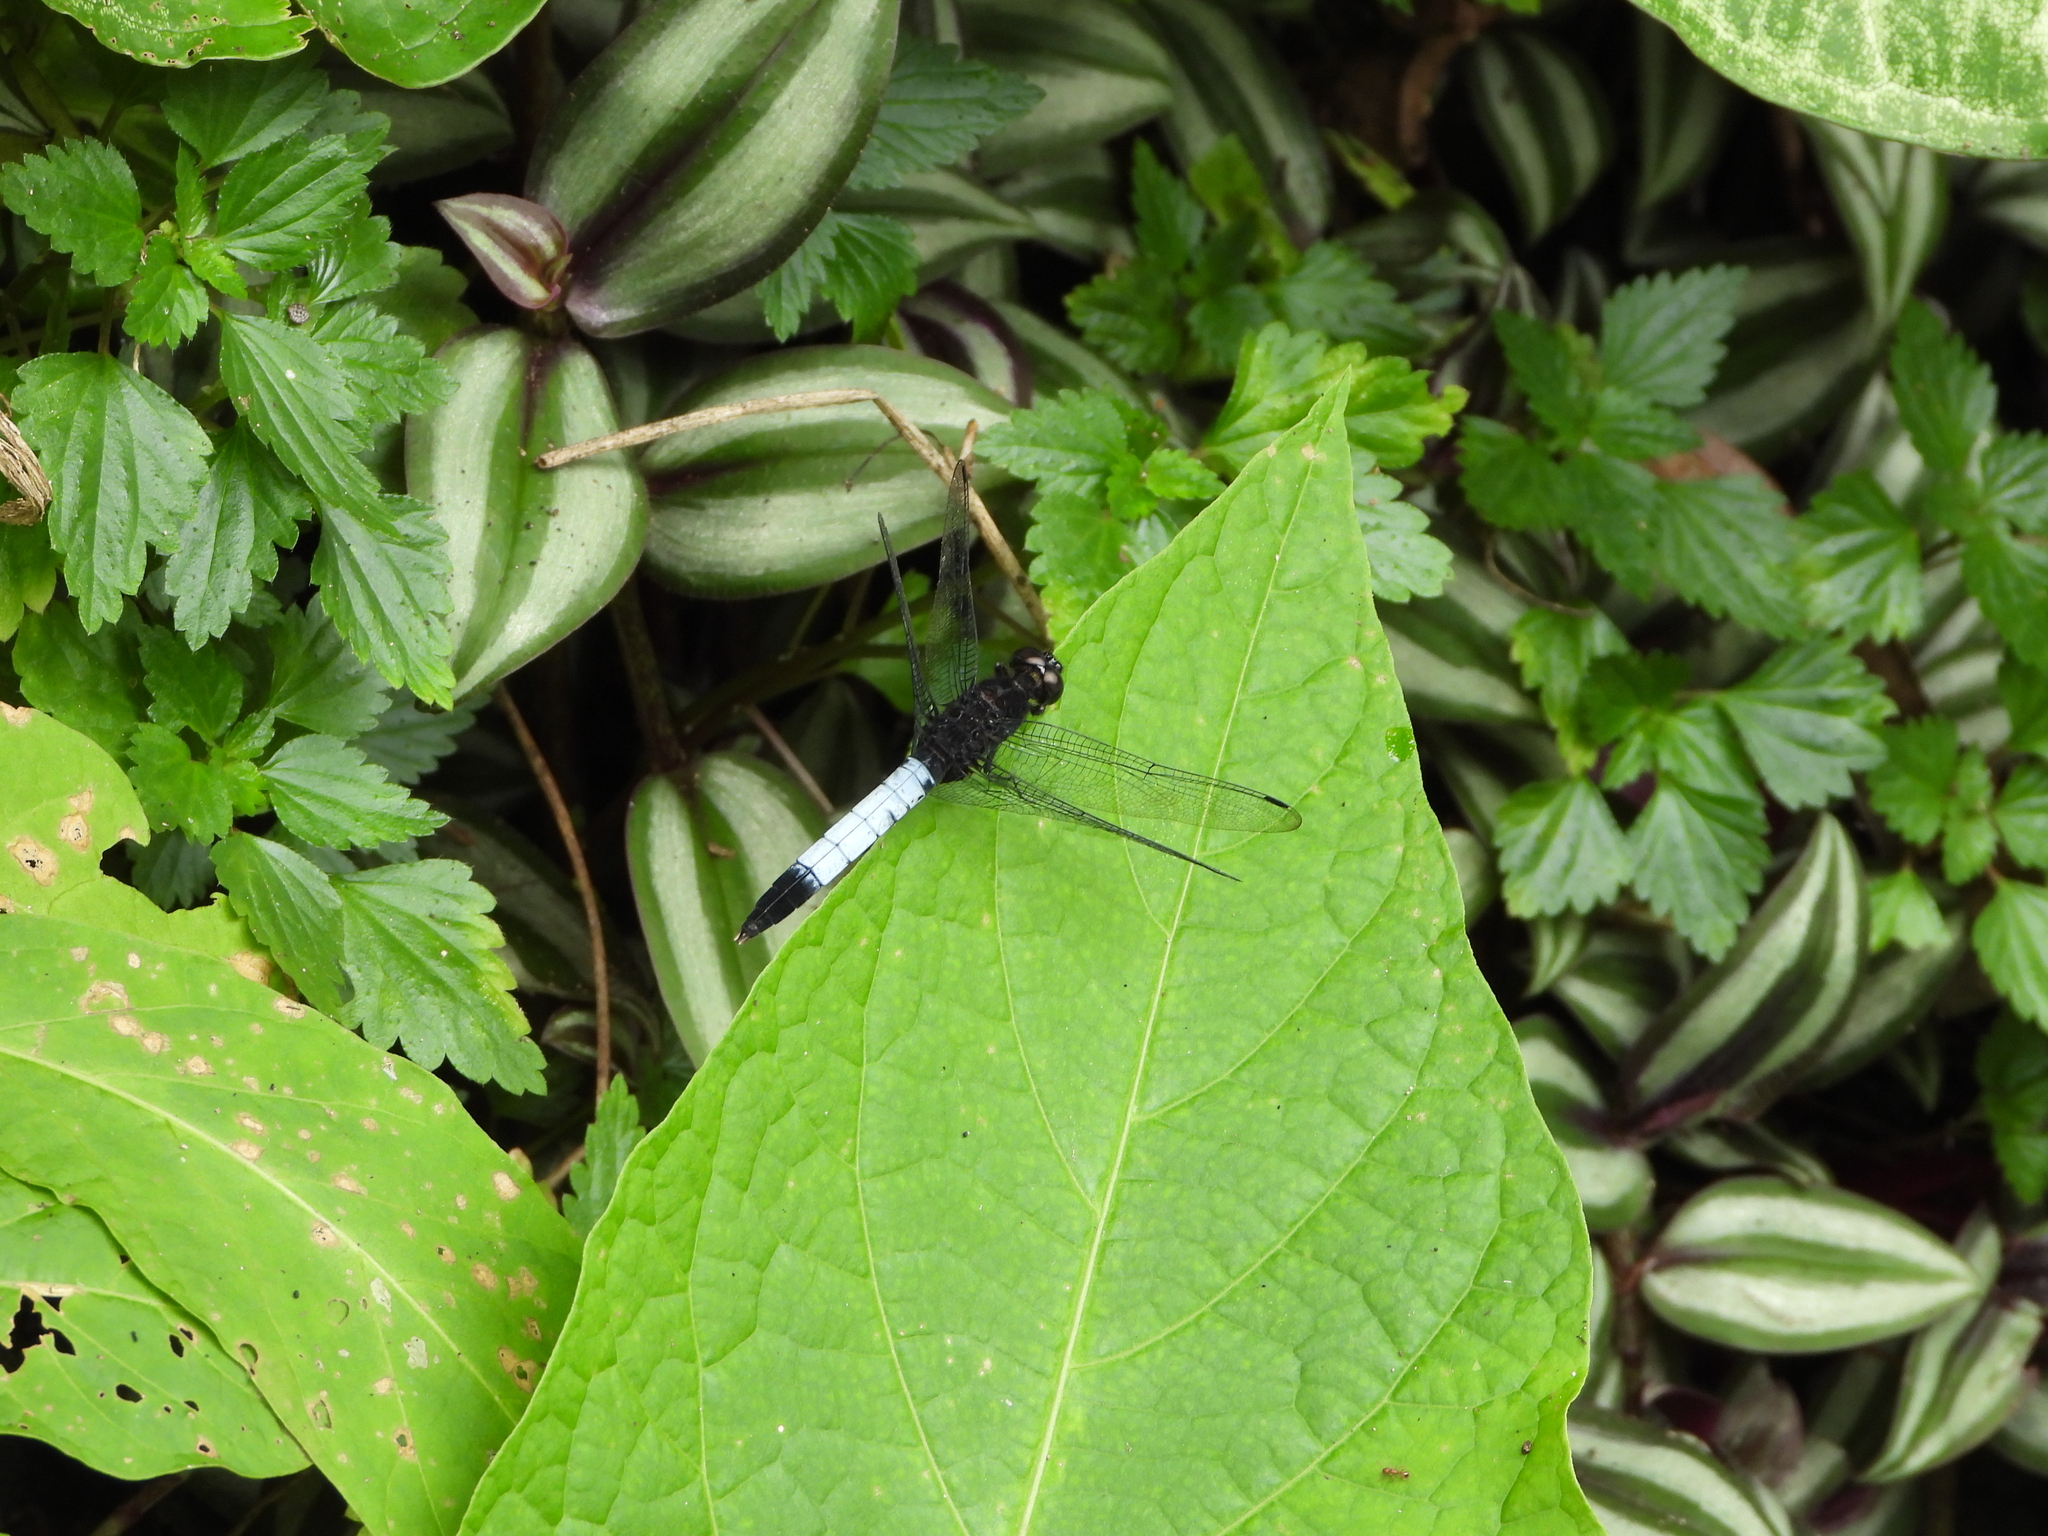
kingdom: Animalia
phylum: Arthropoda
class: Insecta
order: Odonata
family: Libellulidae
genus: Orthetrum
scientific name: Orthetrum triangulare
